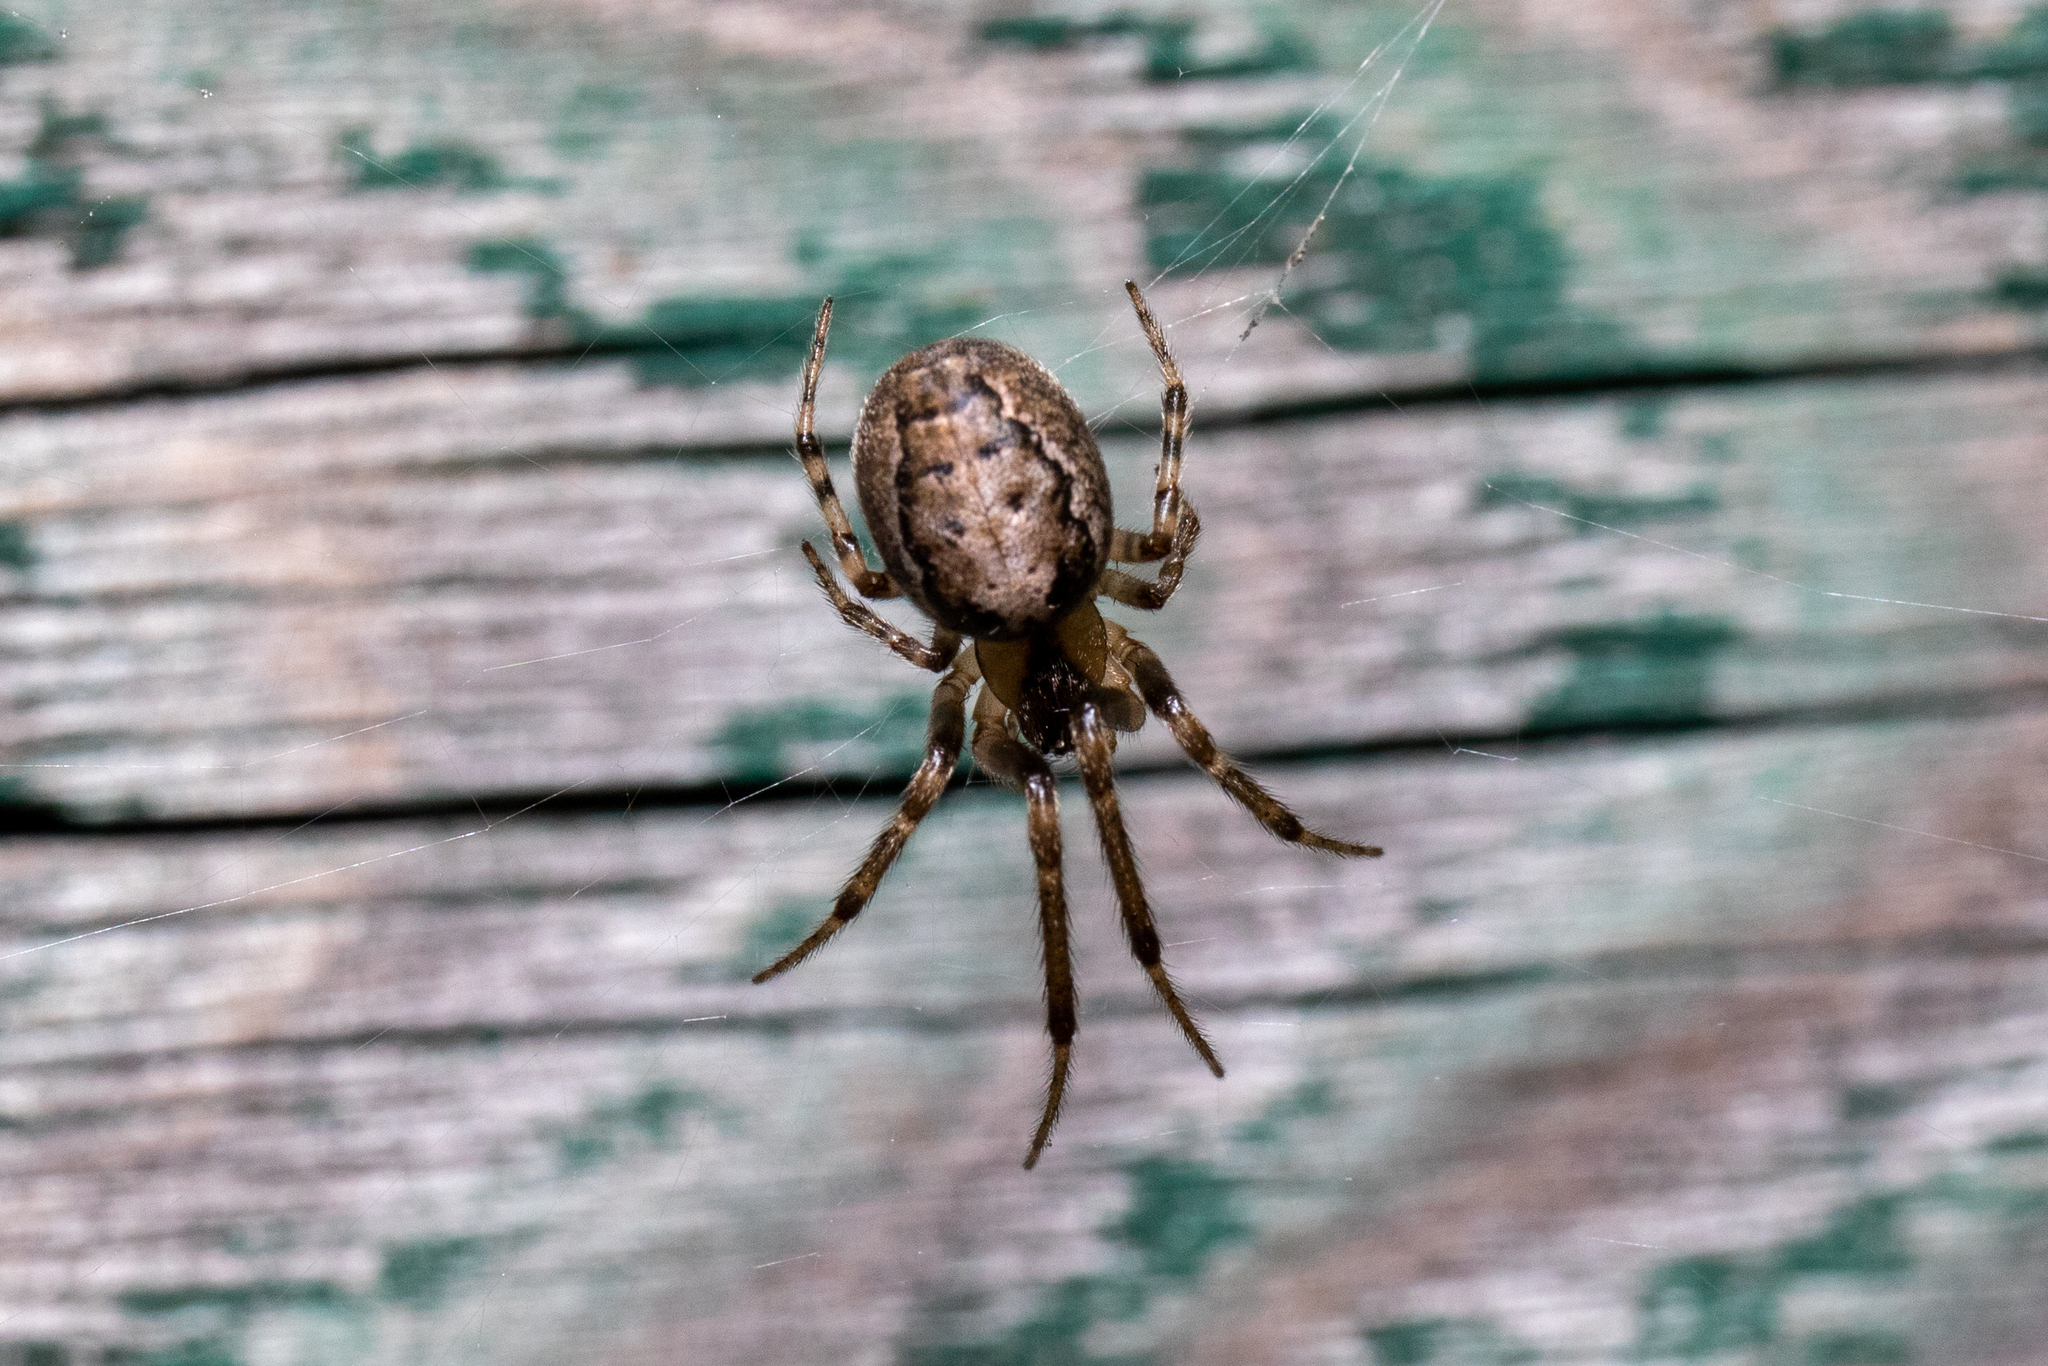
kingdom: Animalia
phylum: Arthropoda
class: Arachnida
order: Araneae
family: Araneidae
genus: Zygiella
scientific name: Zygiella x-notata
